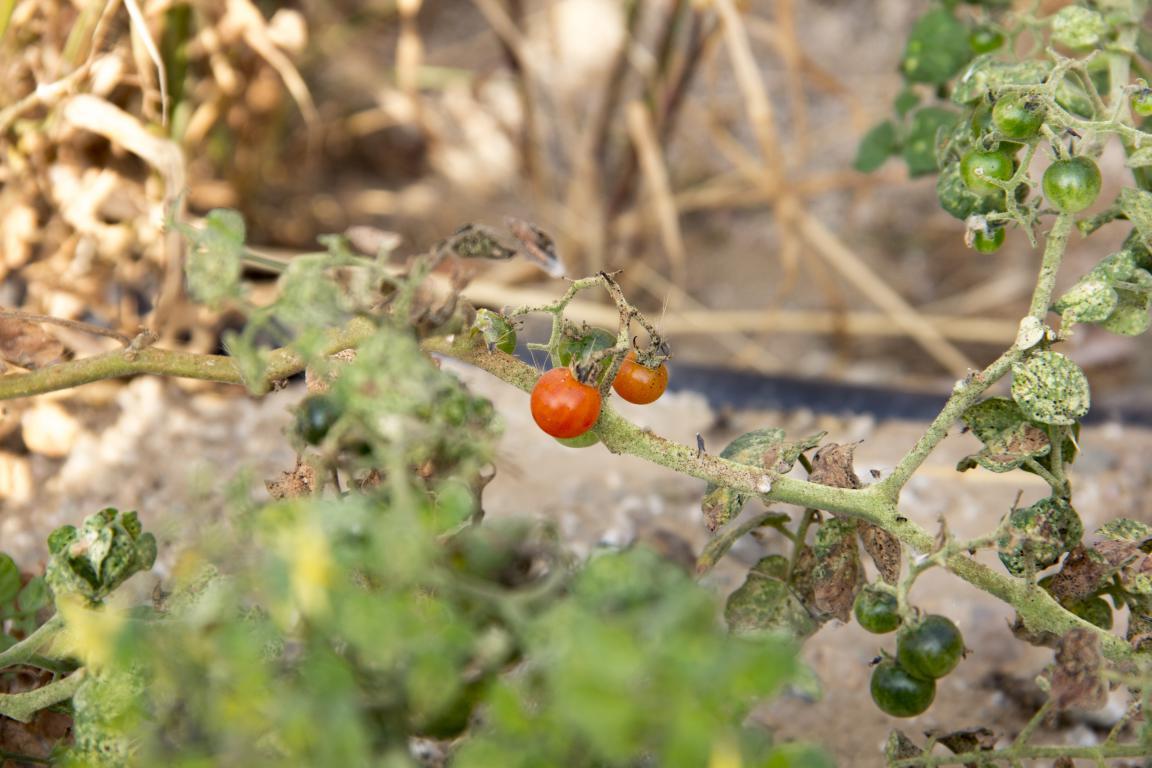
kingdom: Plantae
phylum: Tracheophyta
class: Magnoliopsida
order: Solanales
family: Solanaceae
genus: Solanum
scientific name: Solanum pimpinellifolium
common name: Currant-tomato
